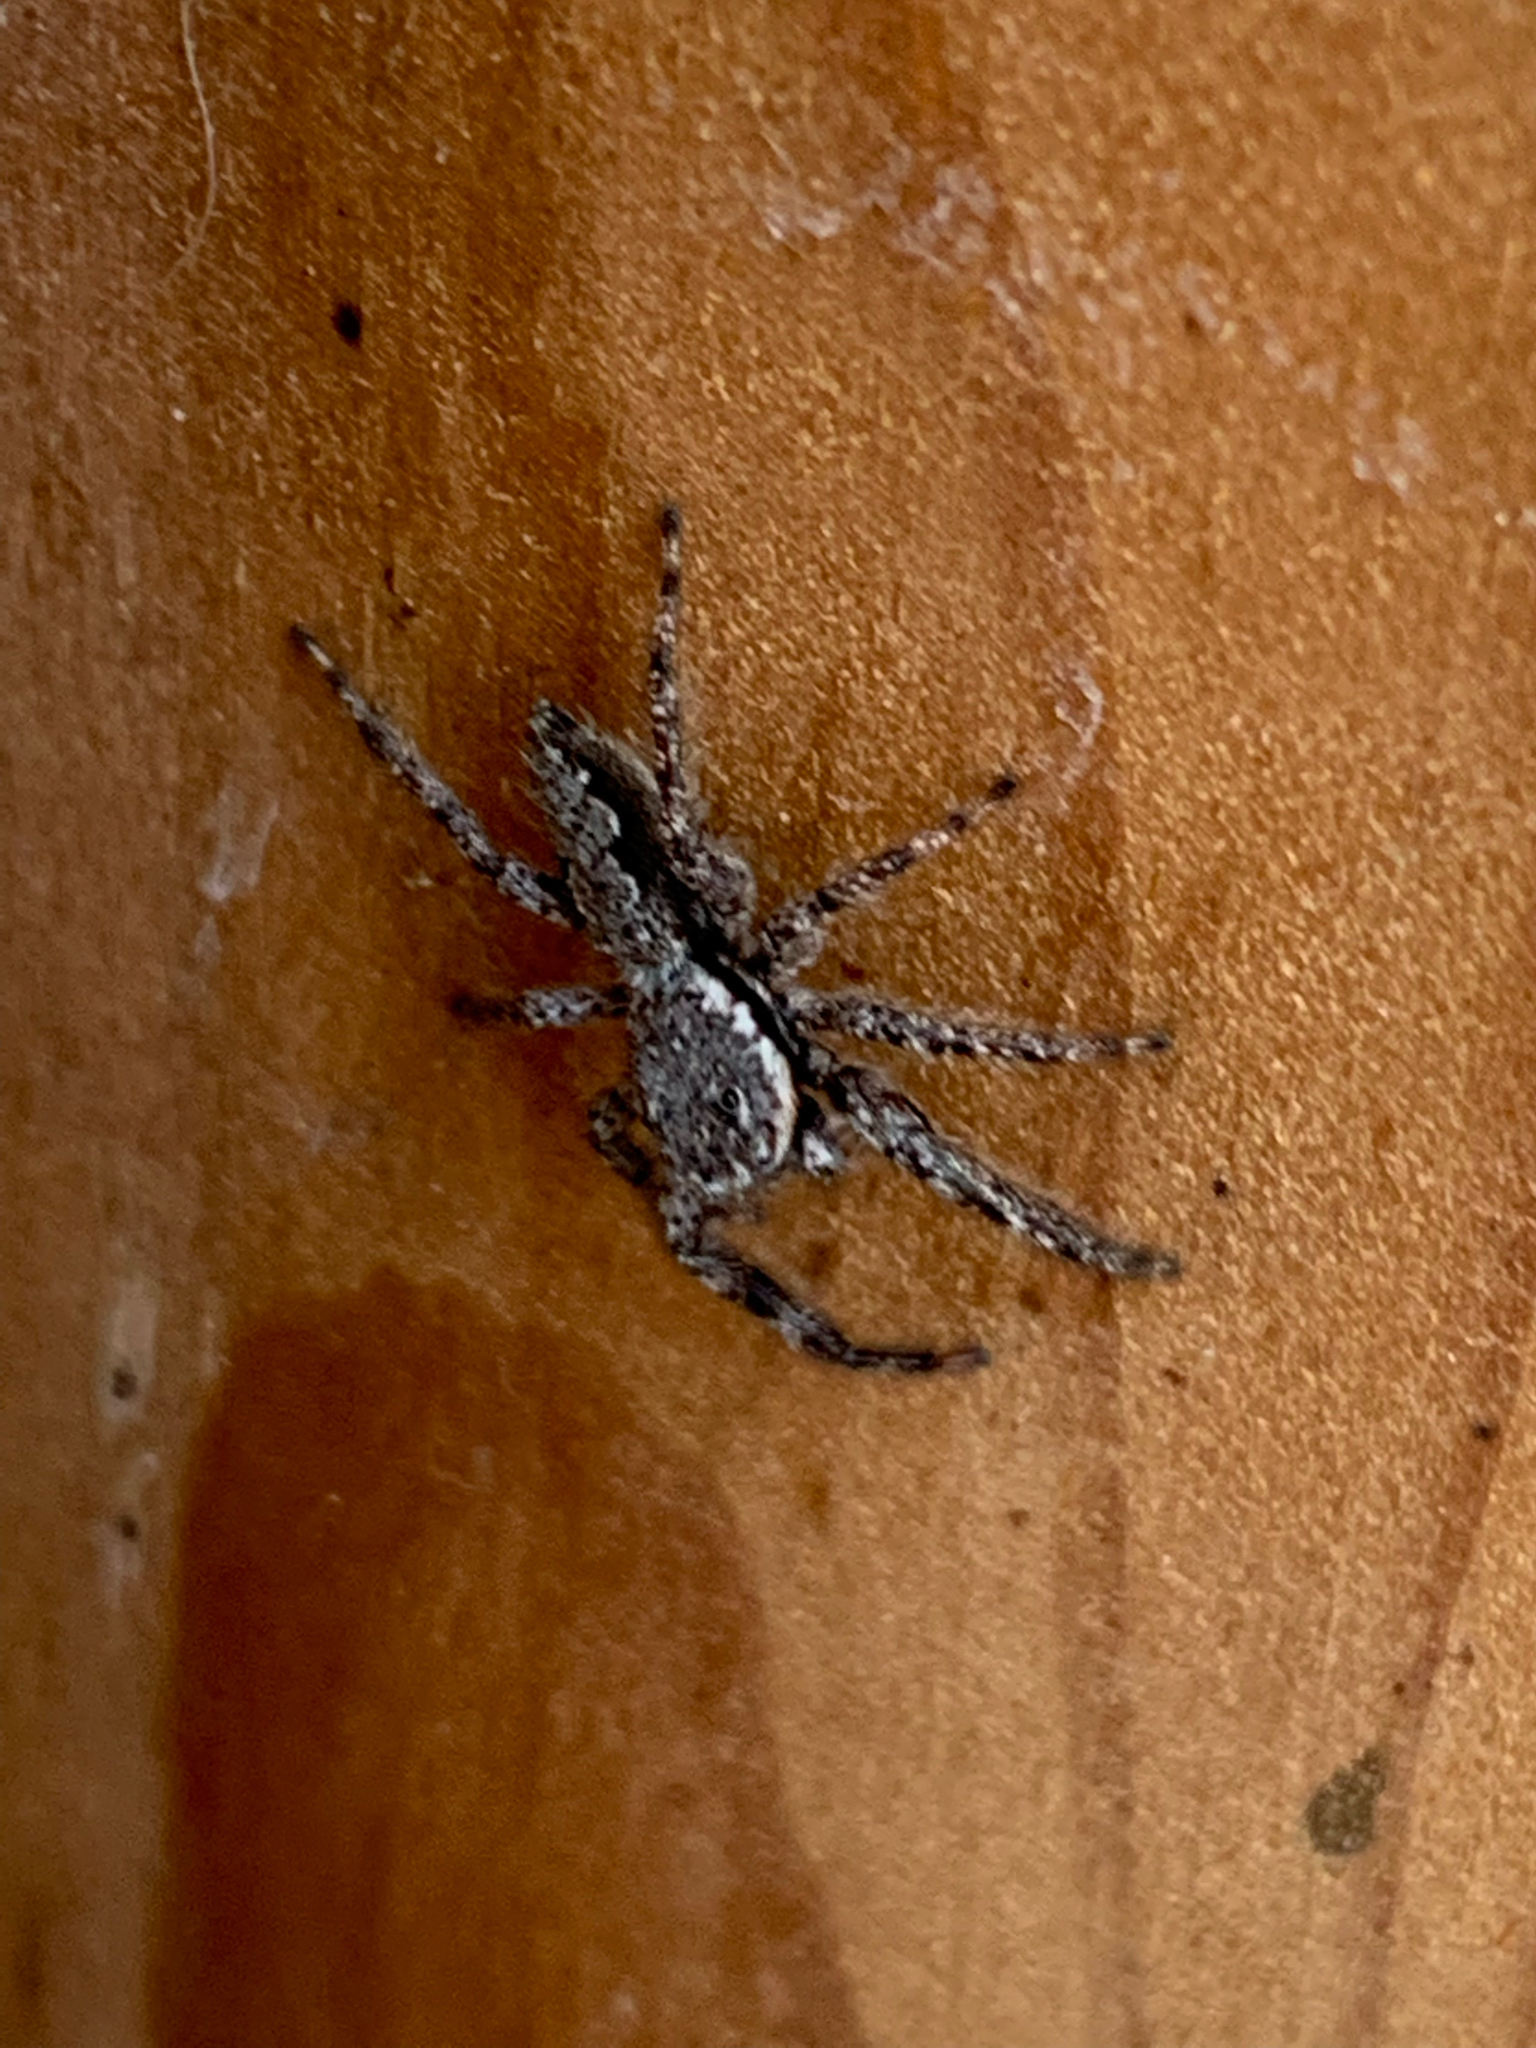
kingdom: Animalia
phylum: Arthropoda
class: Arachnida
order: Araneae
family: Salticidae
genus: Platycryptus
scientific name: Platycryptus undatus
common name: Tan jumping spider
